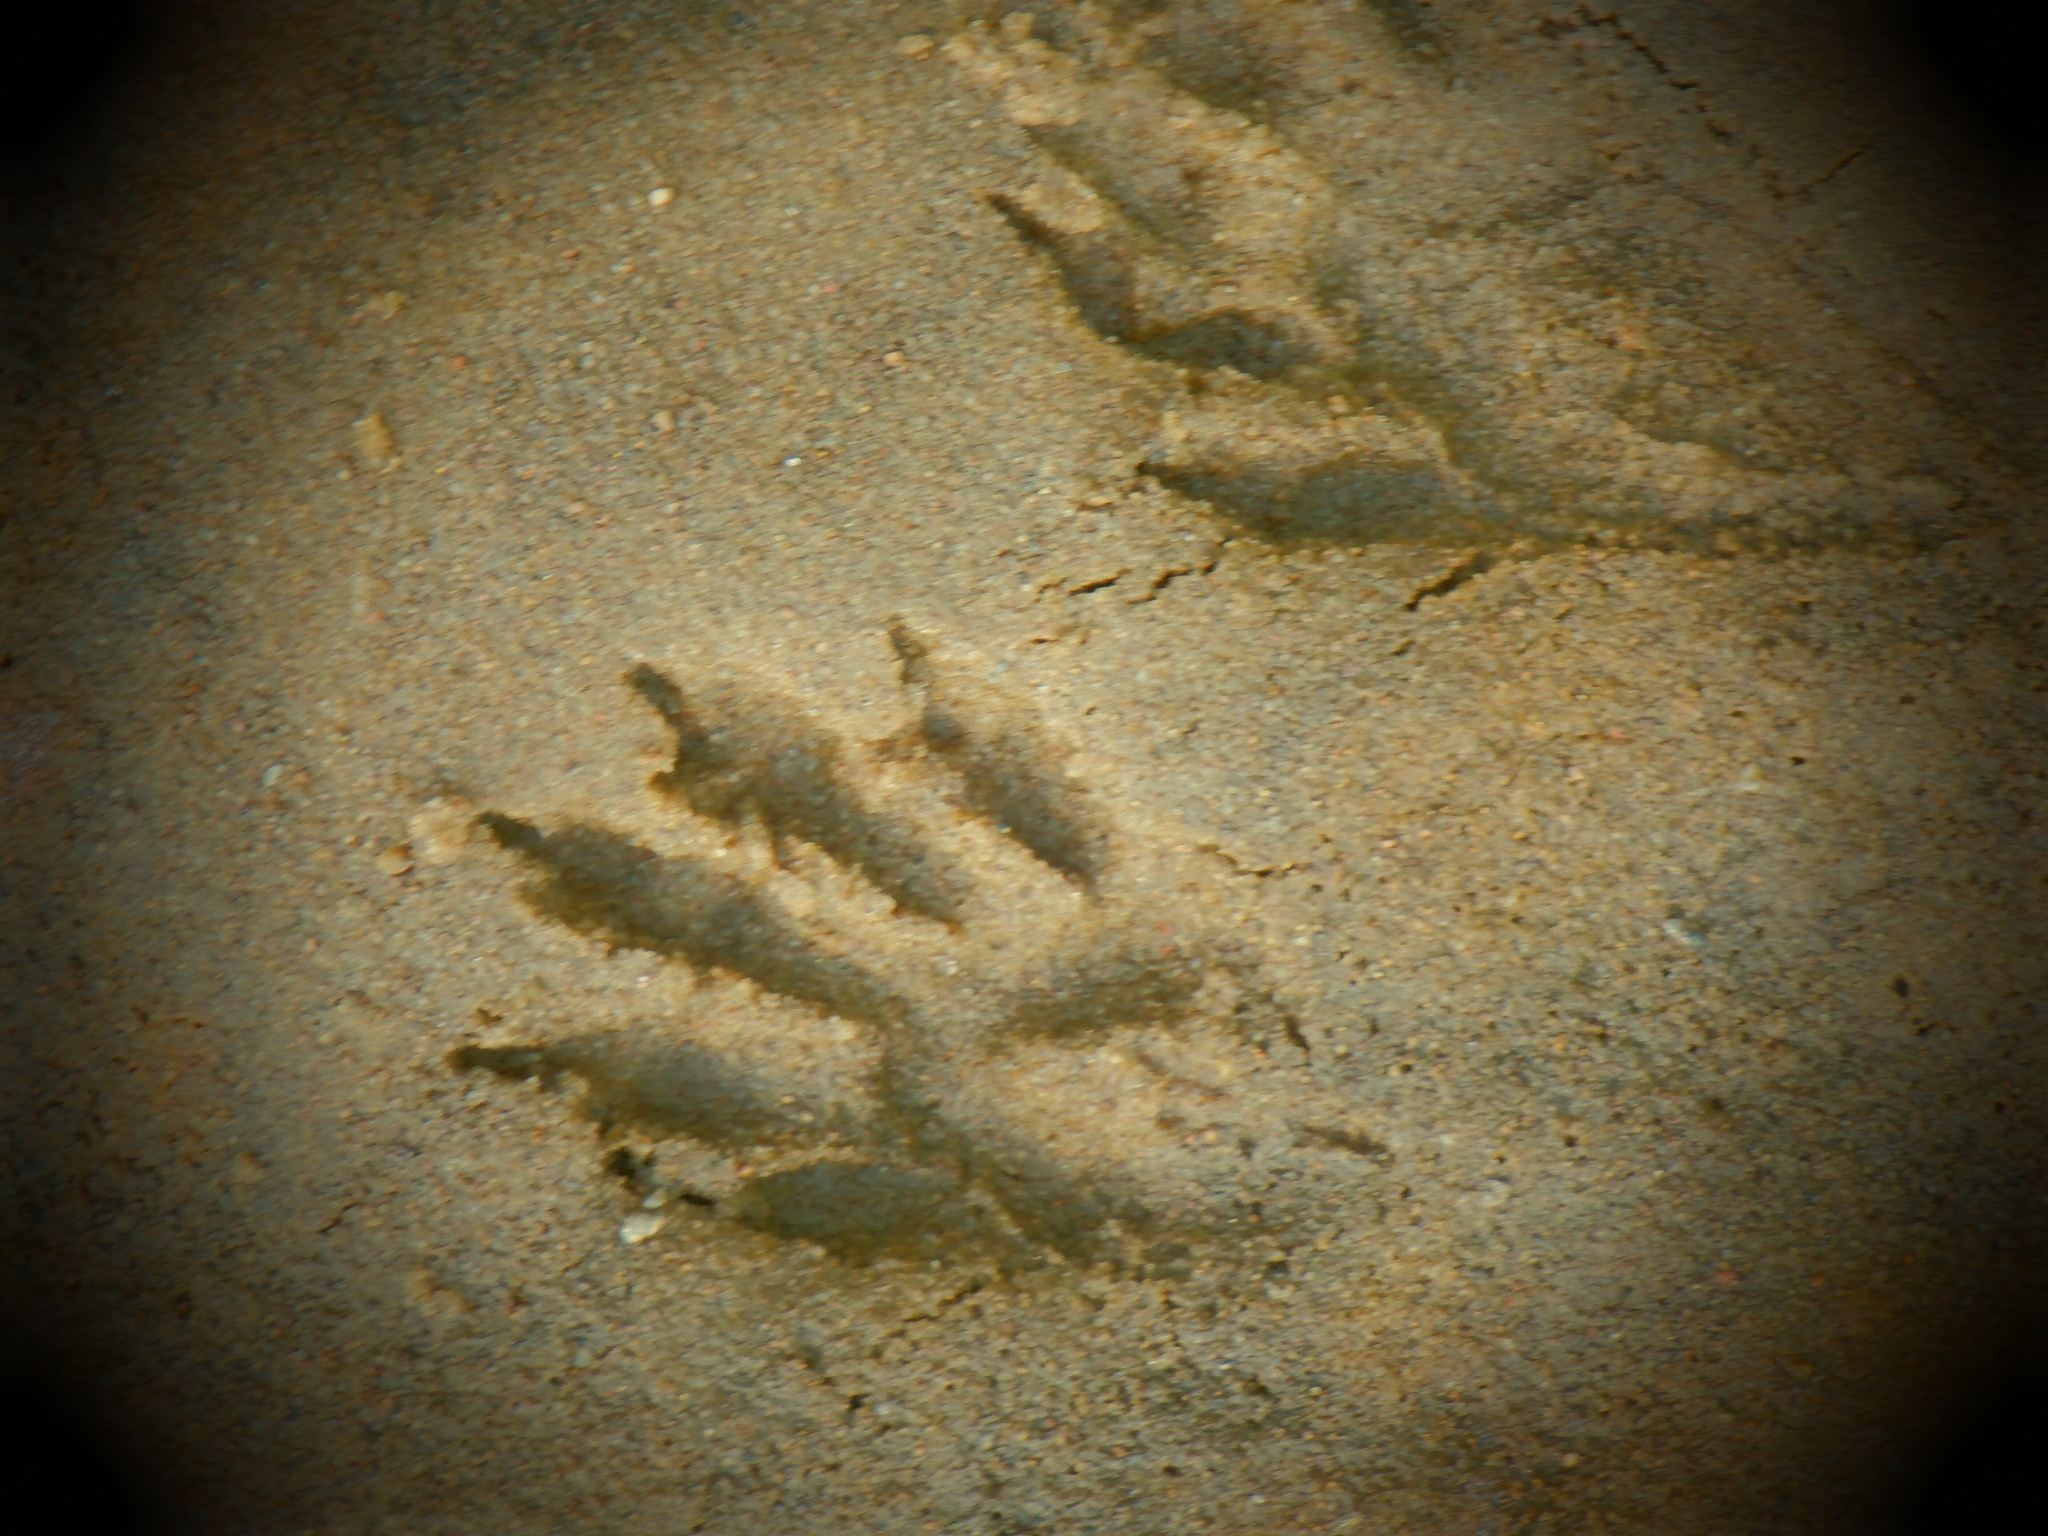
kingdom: Animalia
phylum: Chordata
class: Mammalia
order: Carnivora
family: Procyonidae
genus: Procyon
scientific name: Procyon lotor
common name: Raccoon
